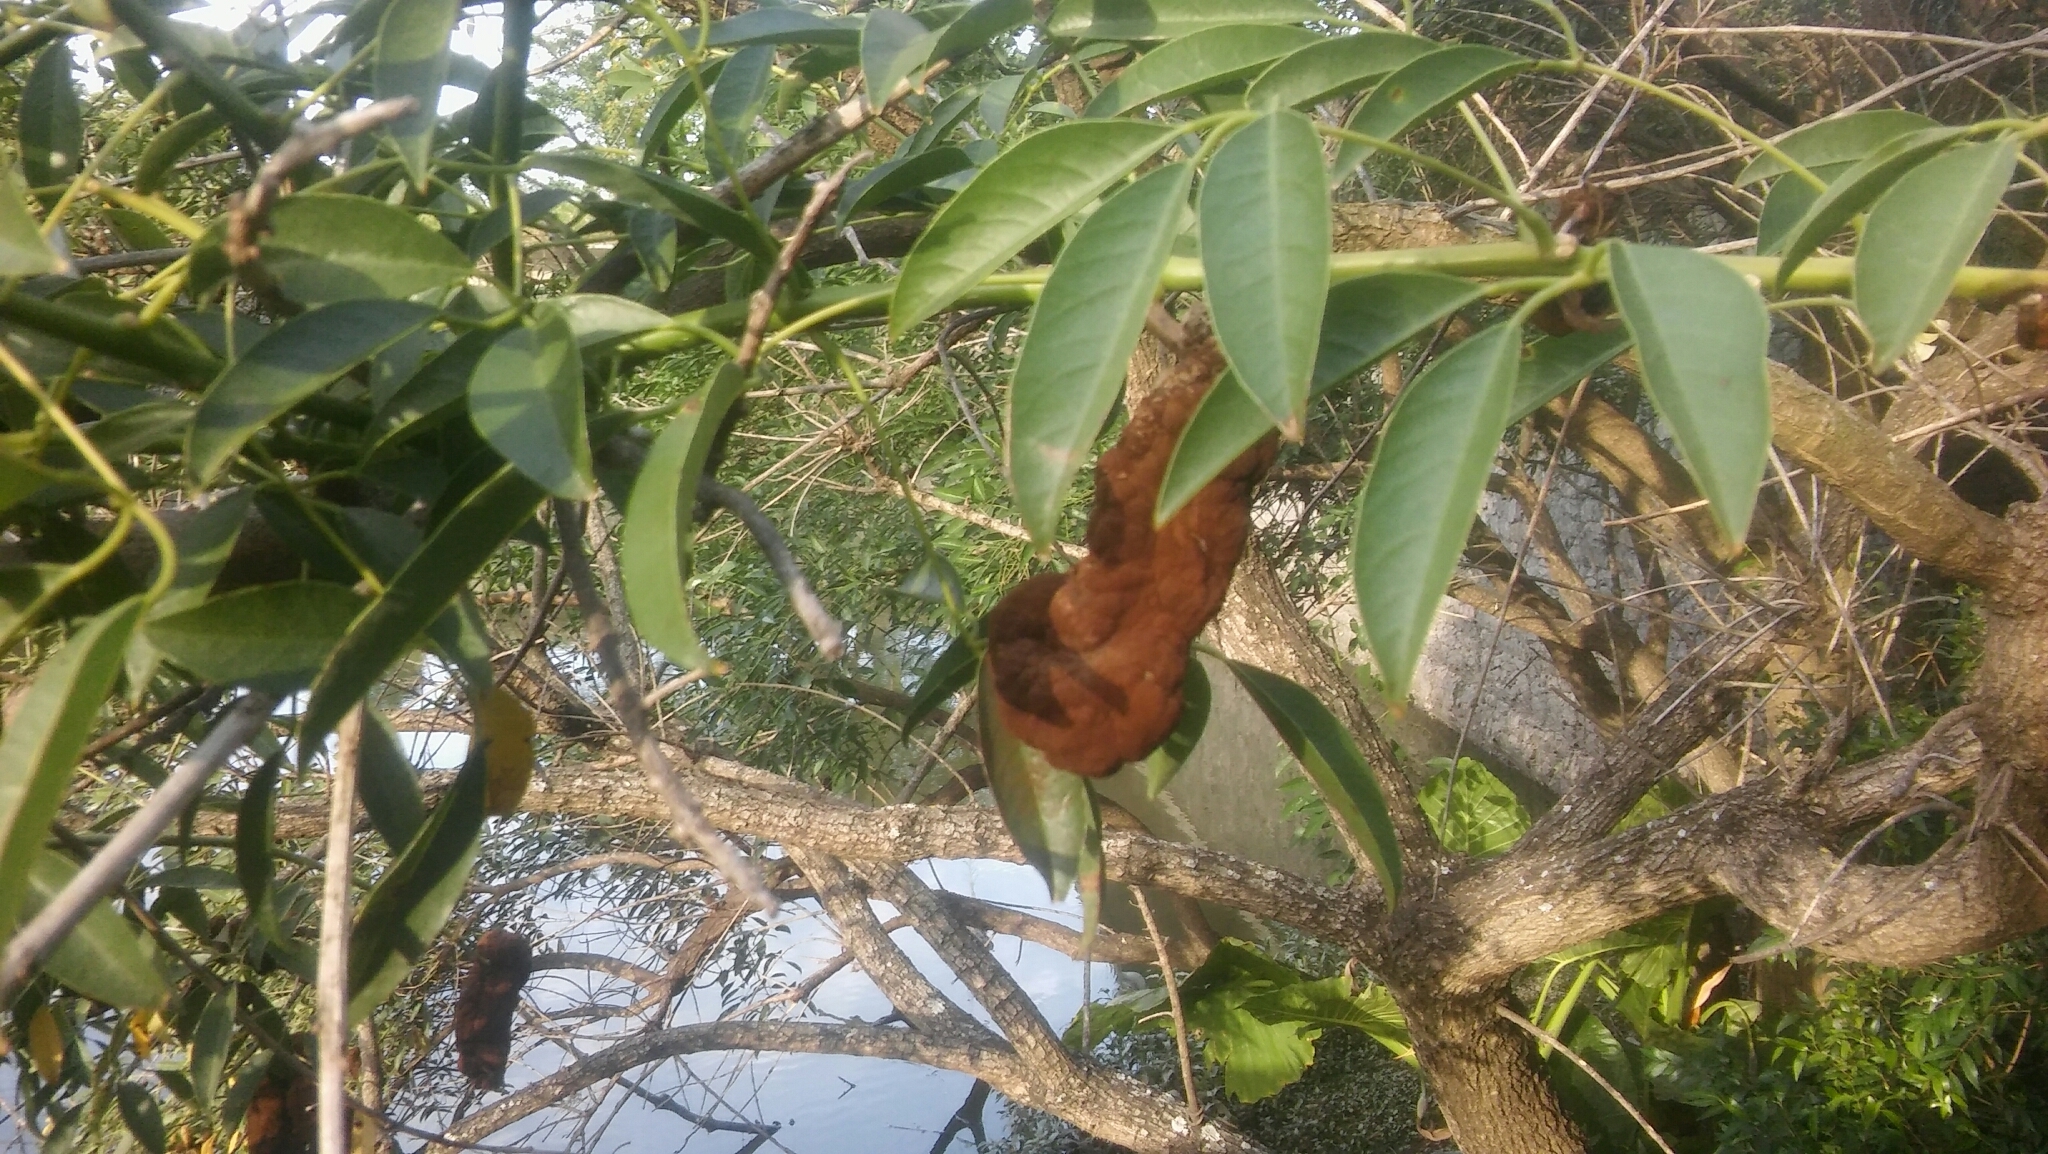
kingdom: Fungi
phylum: Basidiomycota
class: Pucciniomycetes
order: Pucciniales
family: Raveneliaceae
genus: Ravenelia
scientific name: Ravenelia platensis
